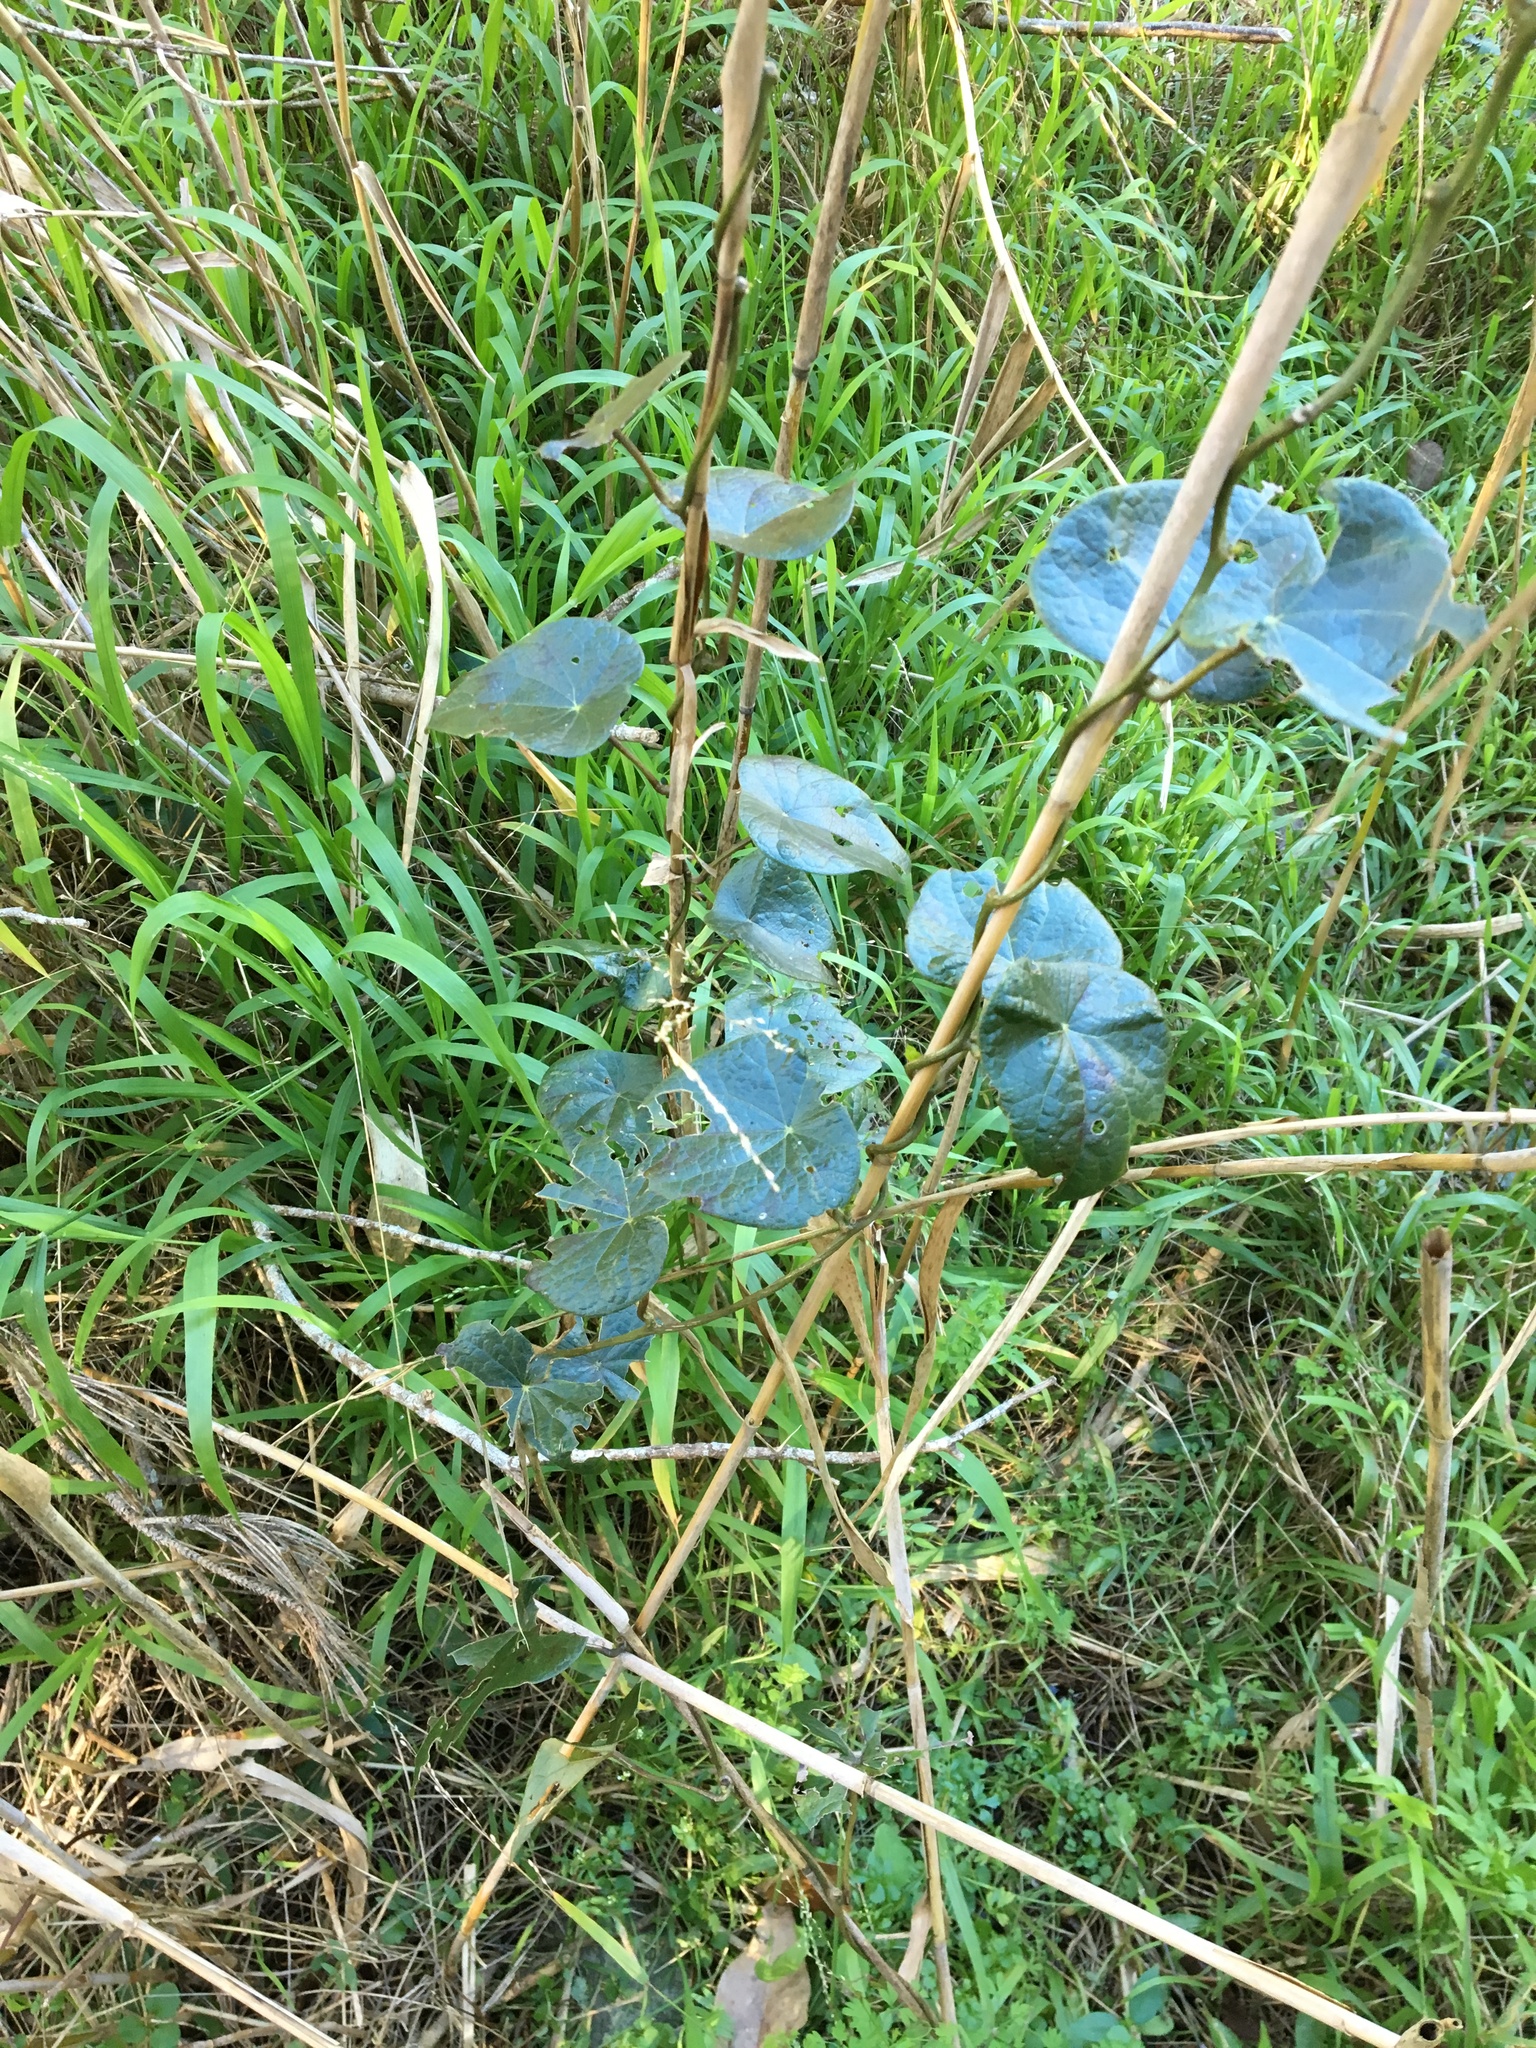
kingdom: Plantae
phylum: Tracheophyta
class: Magnoliopsida
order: Ranunculales
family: Menispermaceae
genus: Stephania
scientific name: Stephania japonica
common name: Snake vine
